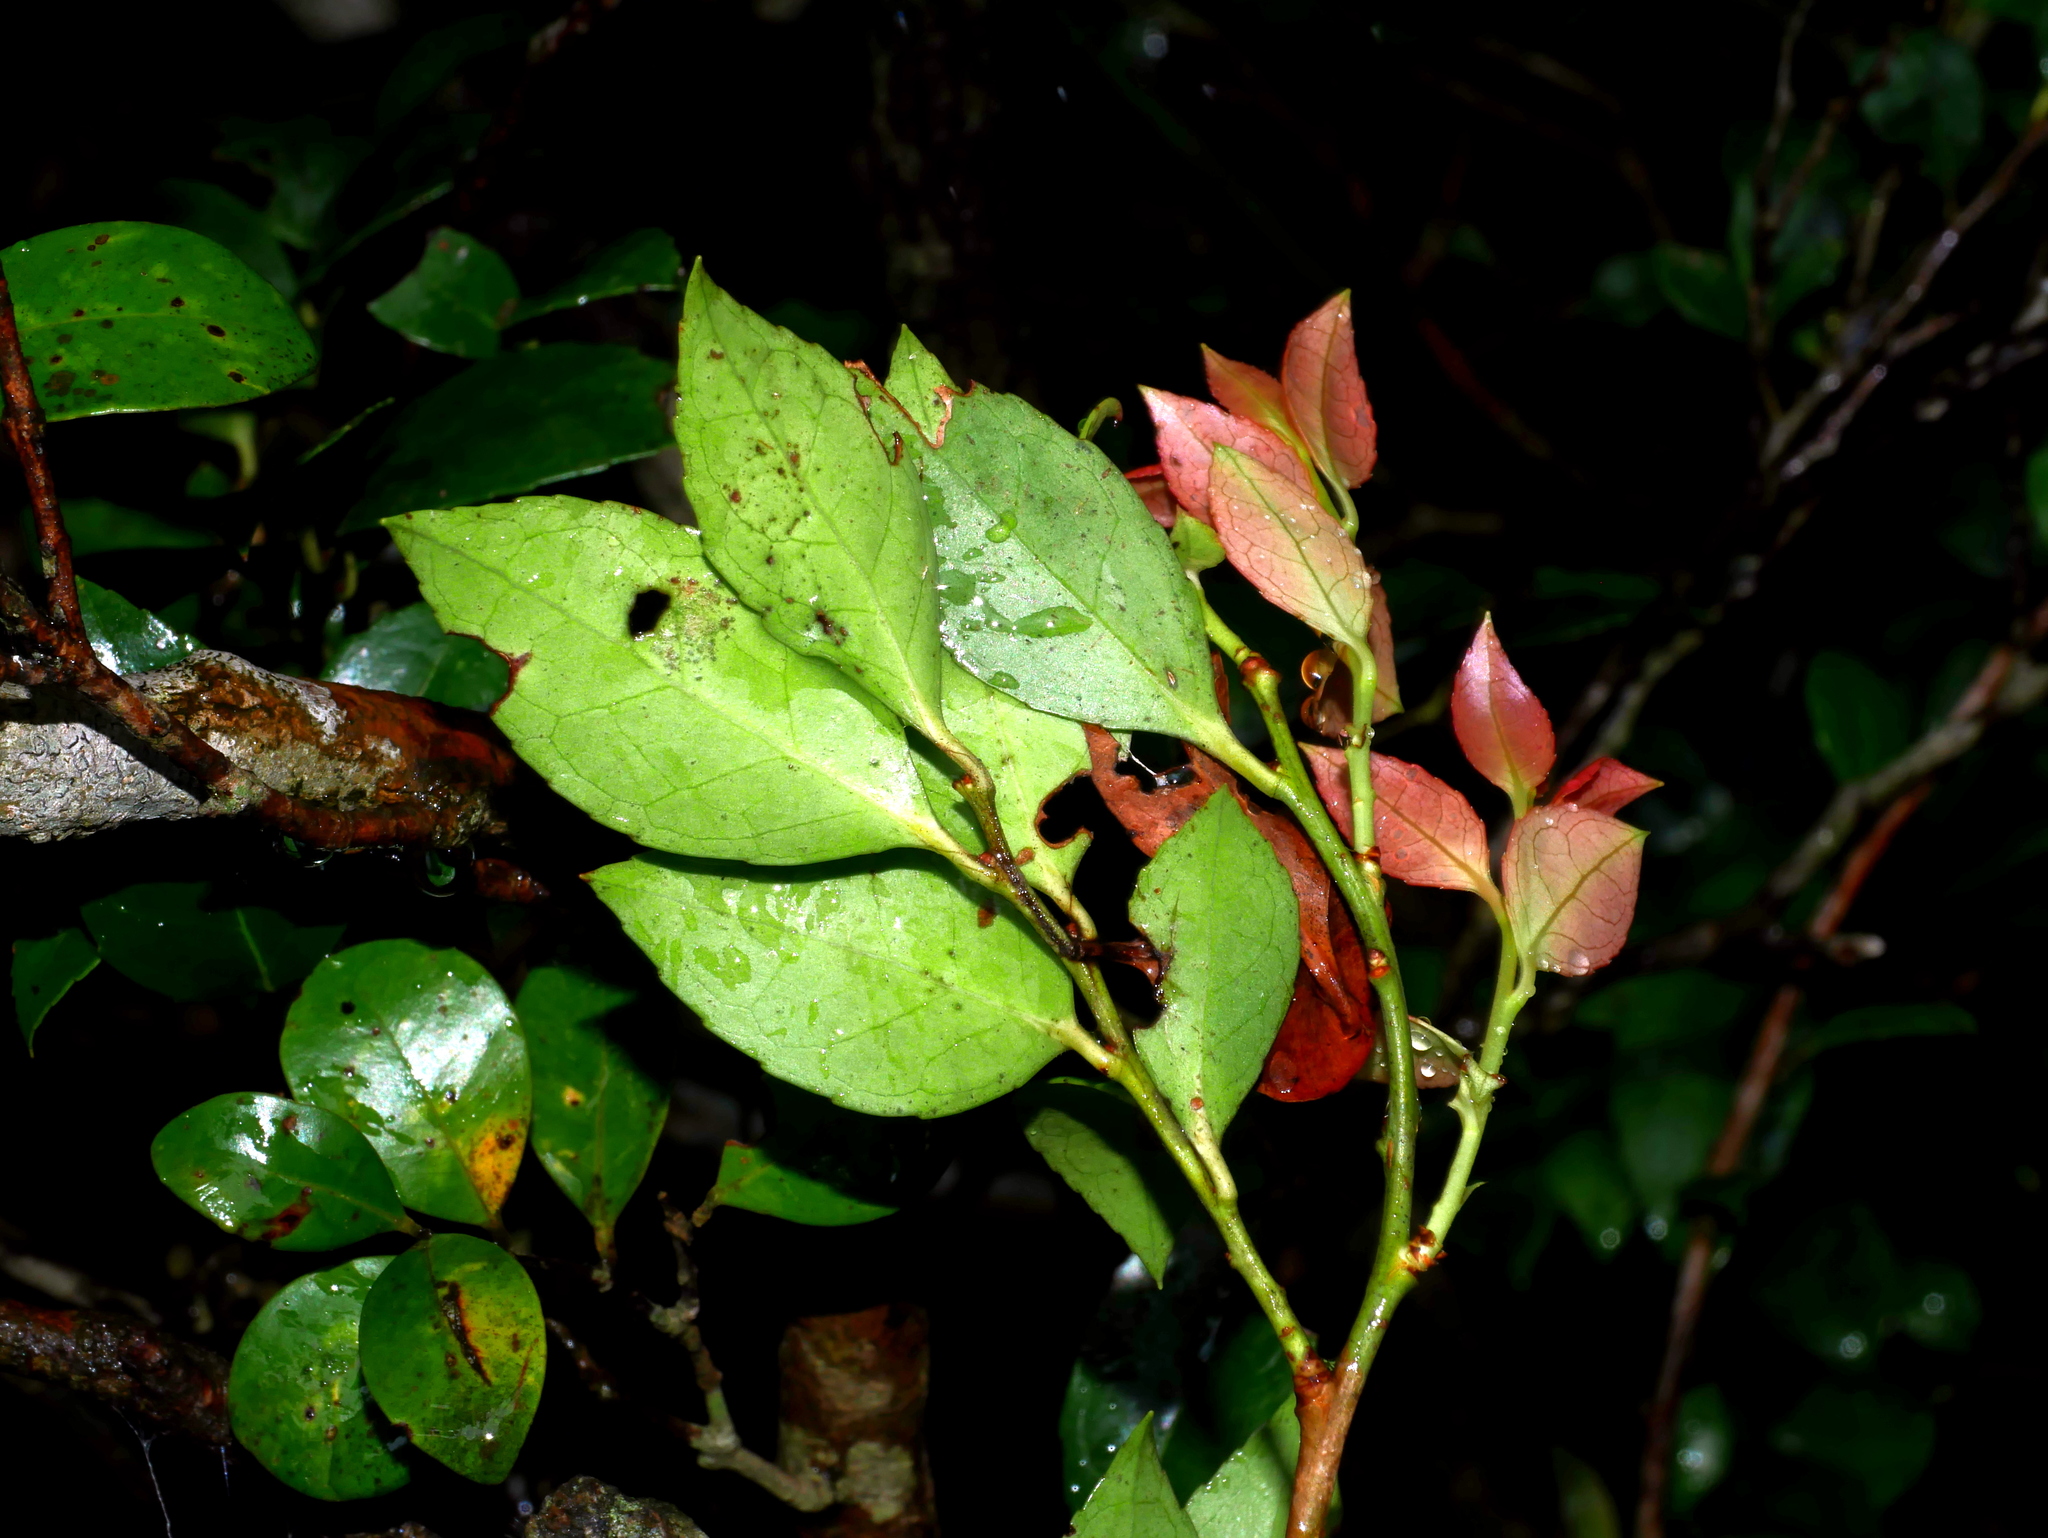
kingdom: Plantae
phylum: Tracheophyta
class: Magnoliopsida
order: Ericales
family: Ericaceae
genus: Vaccinium
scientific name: Vaccinium wrightii
